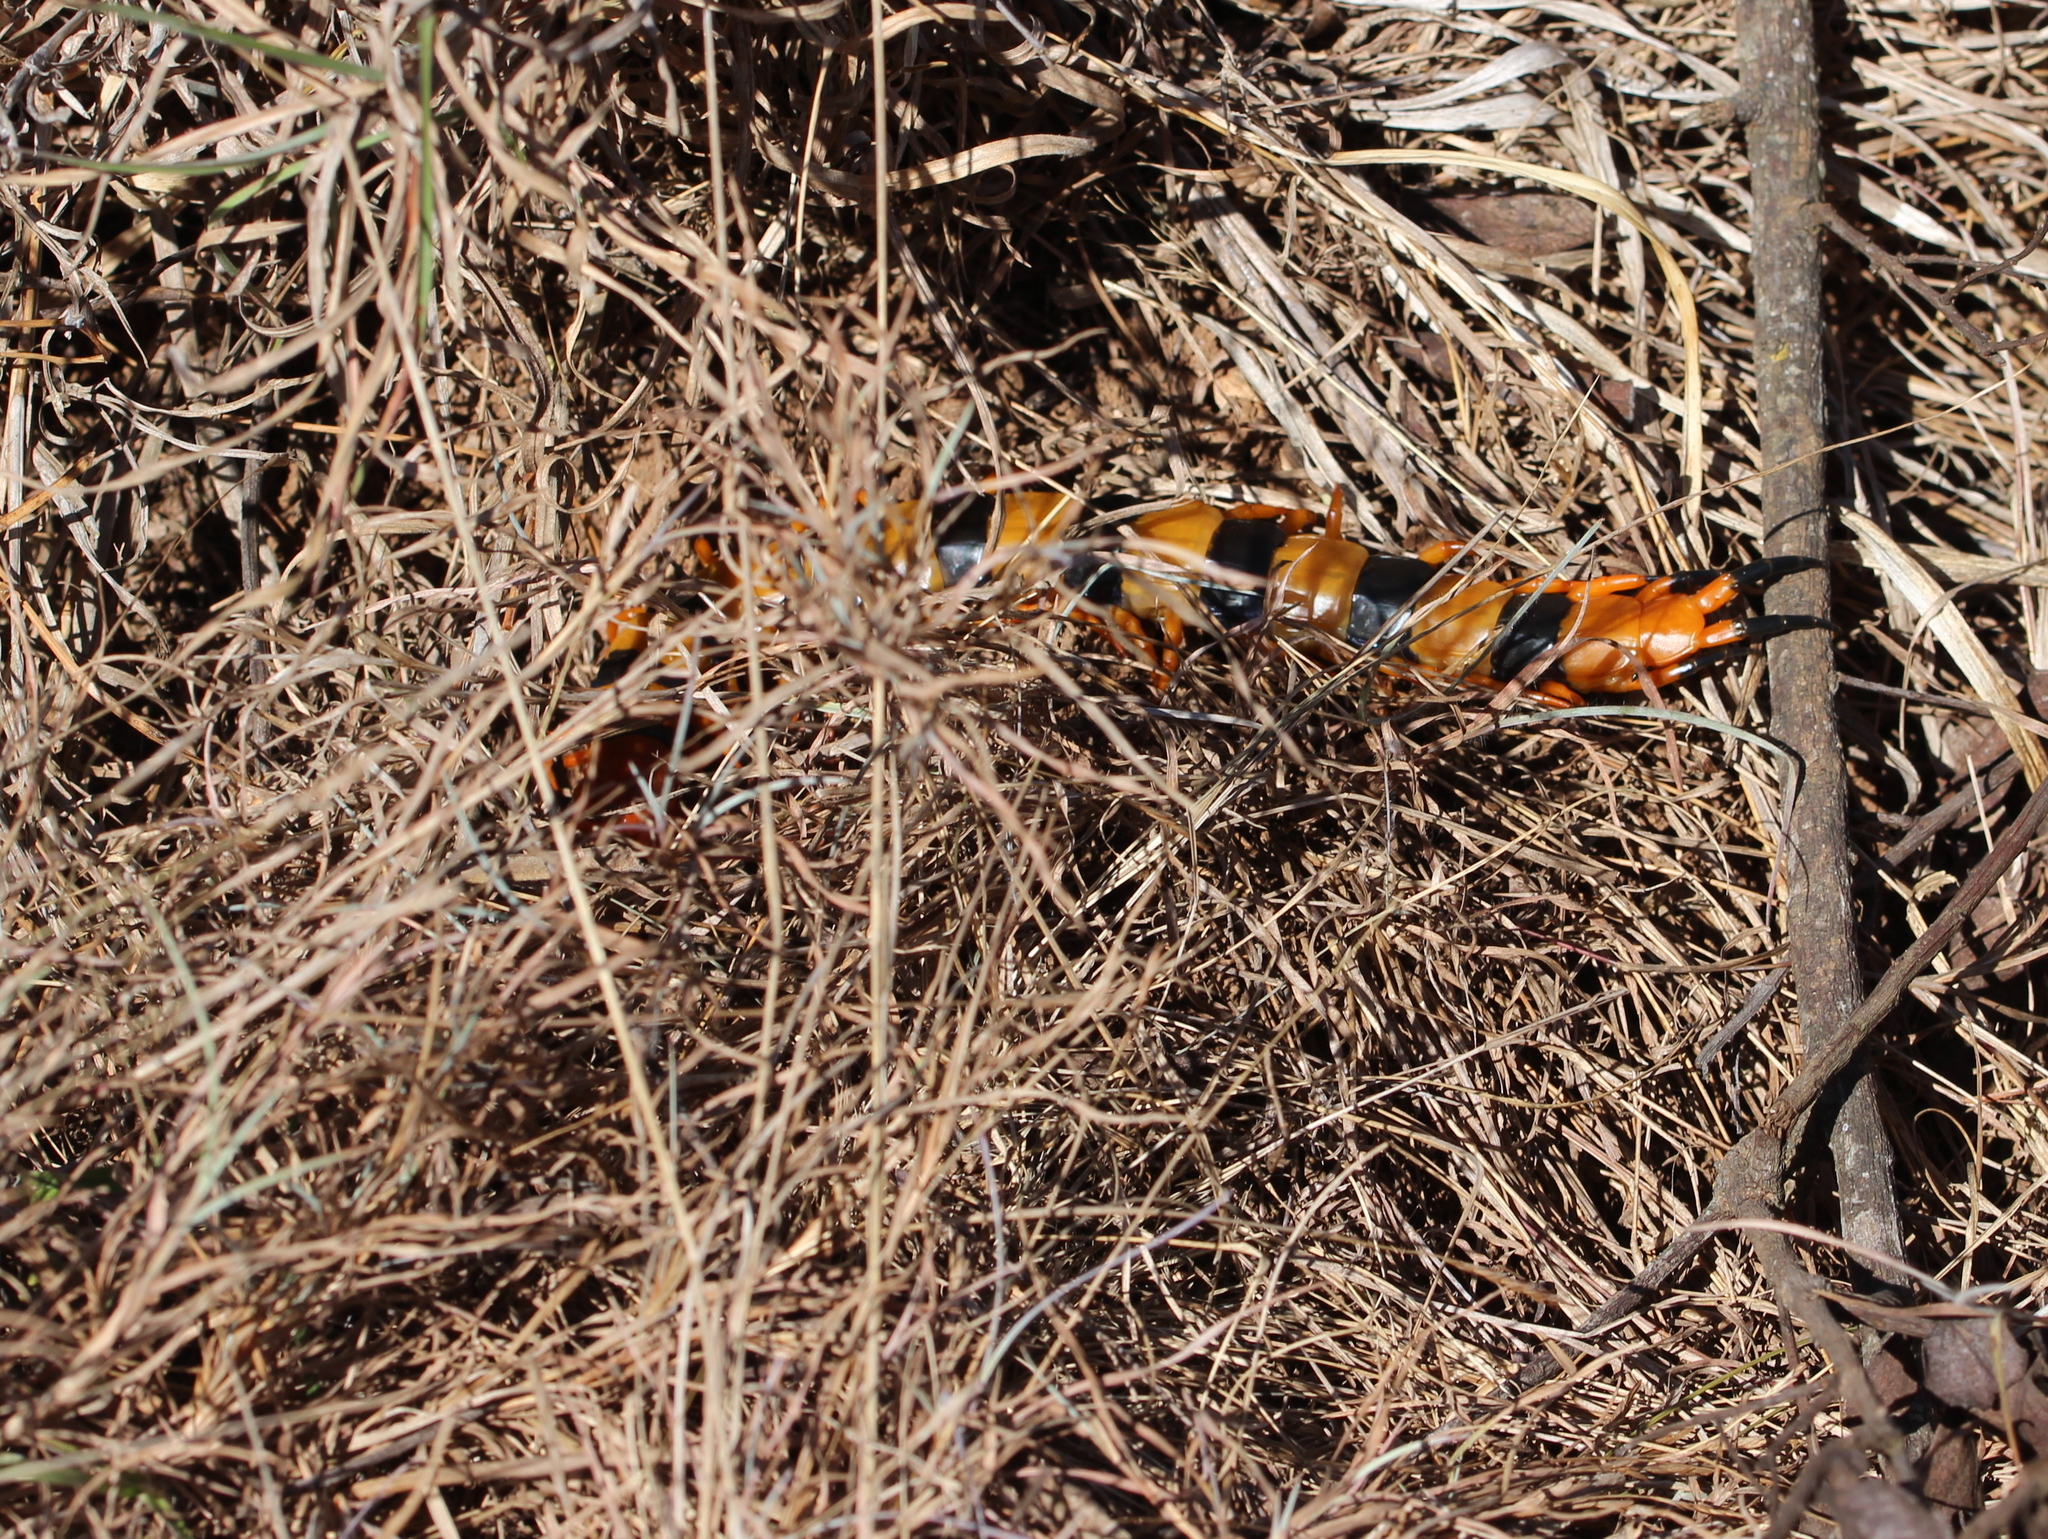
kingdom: Animalia
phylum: Arthropoda
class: Chilopoda
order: Scolopendromorpha
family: Scolopendridae
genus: Scolopendra
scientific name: Scolopendra hardwickei
